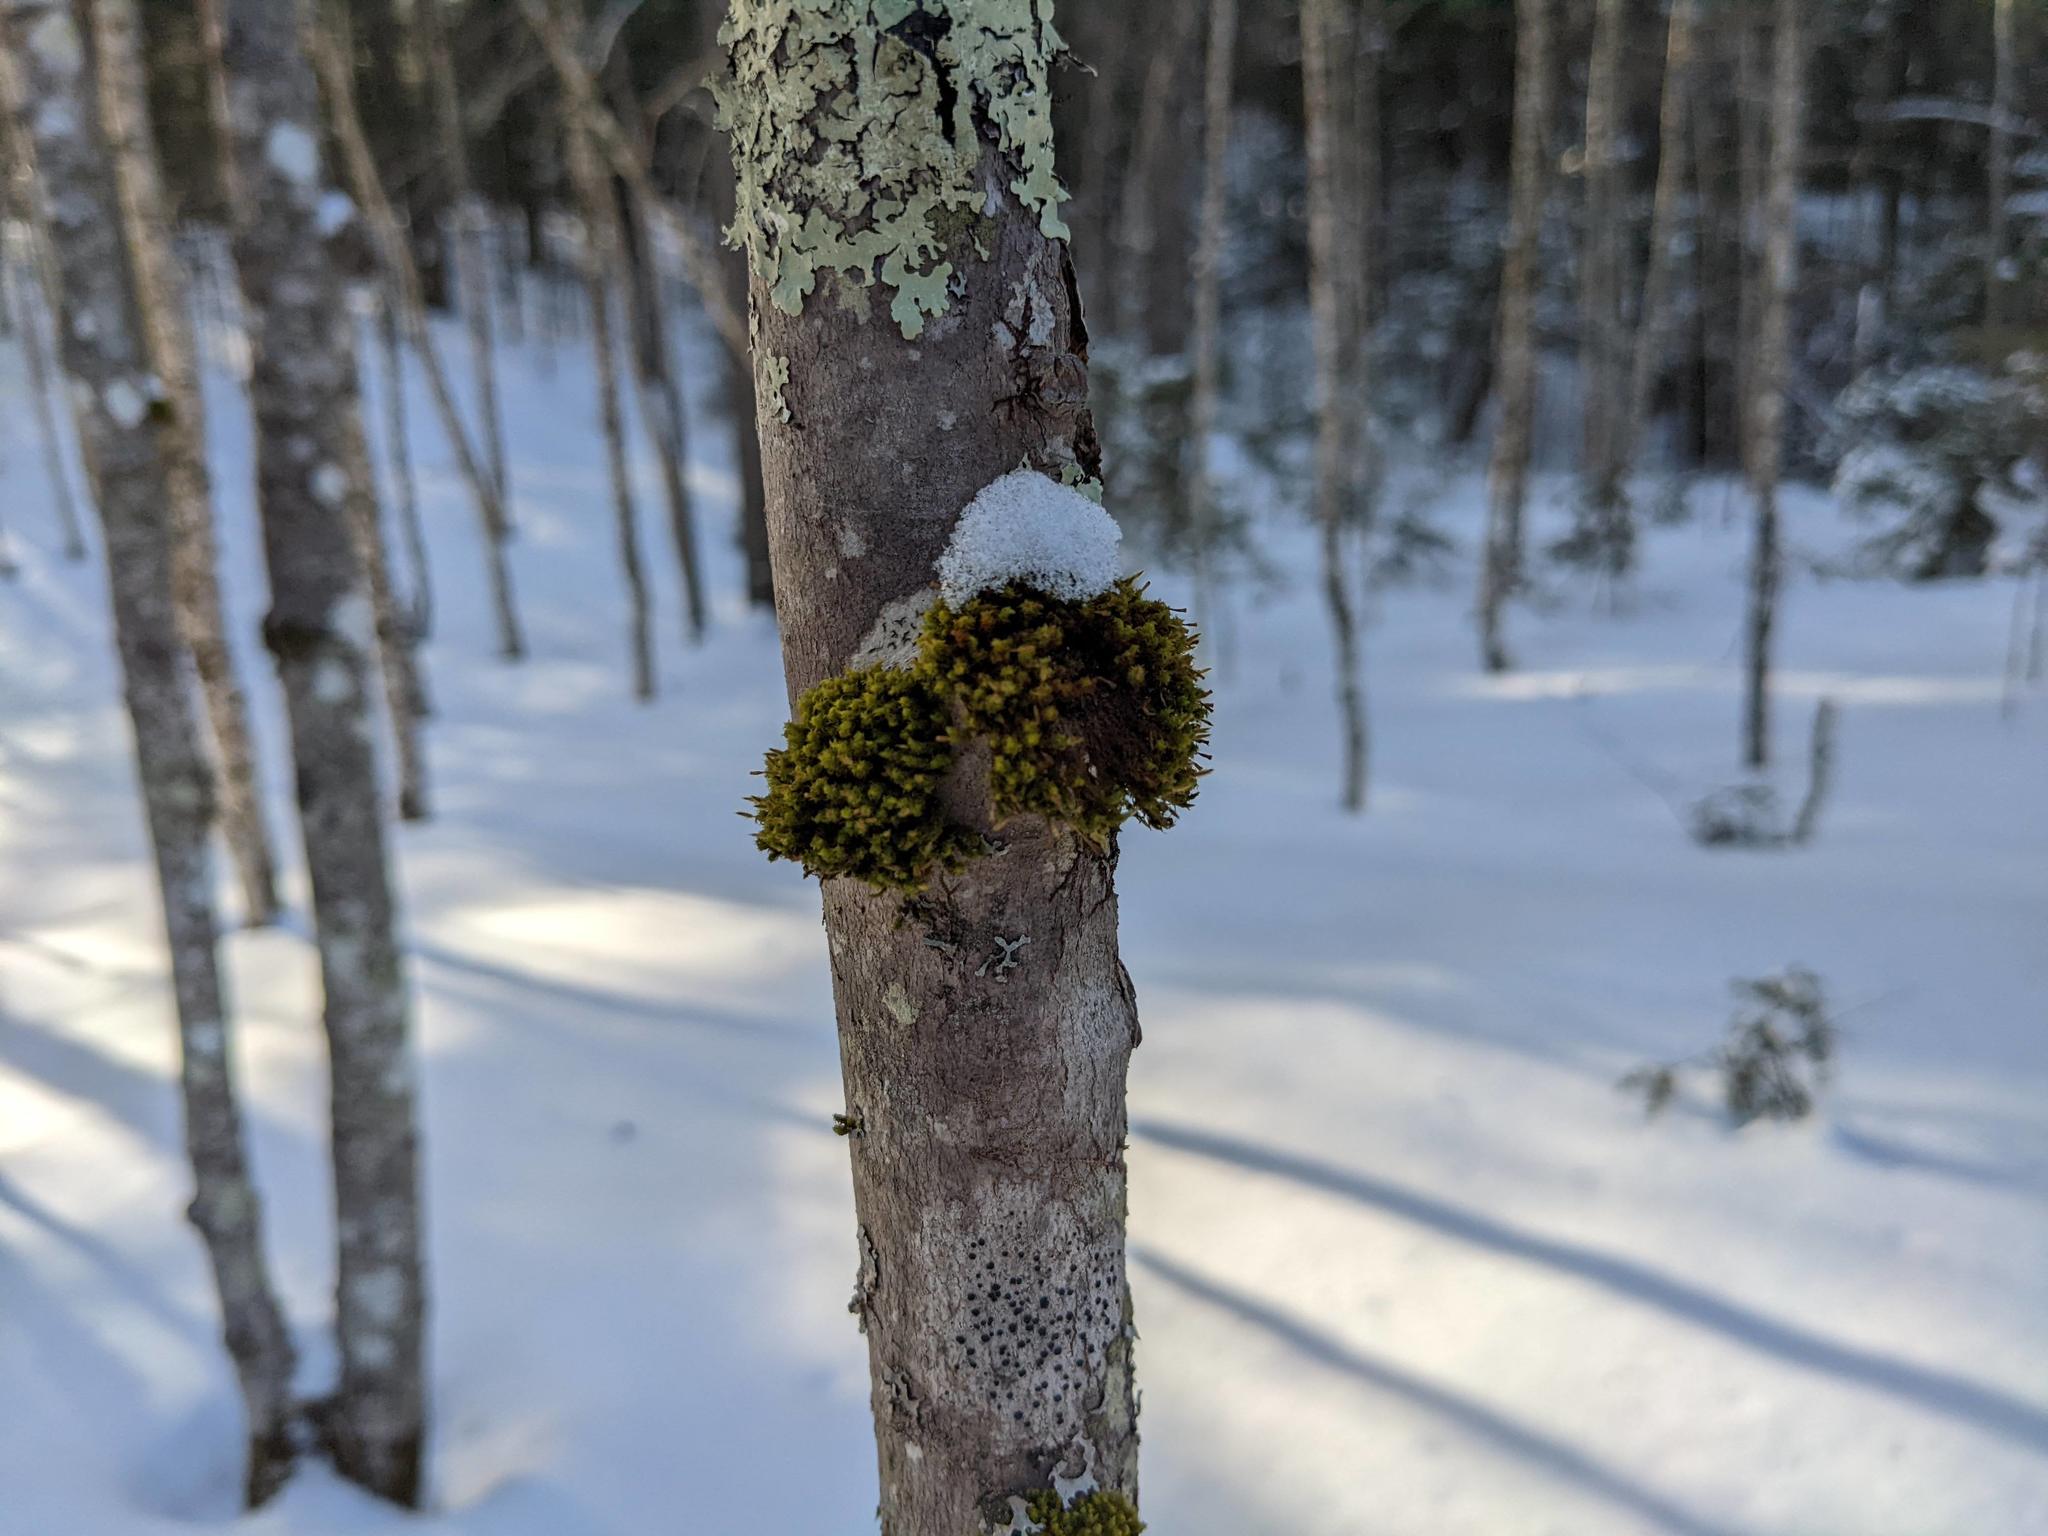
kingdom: Plantae
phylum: Bryophyta
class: Bryopsida
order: Orthotrichales
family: Orthotrichaceae
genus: Ulota
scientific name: Ulota crispa
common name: Crisped pincushion moss
